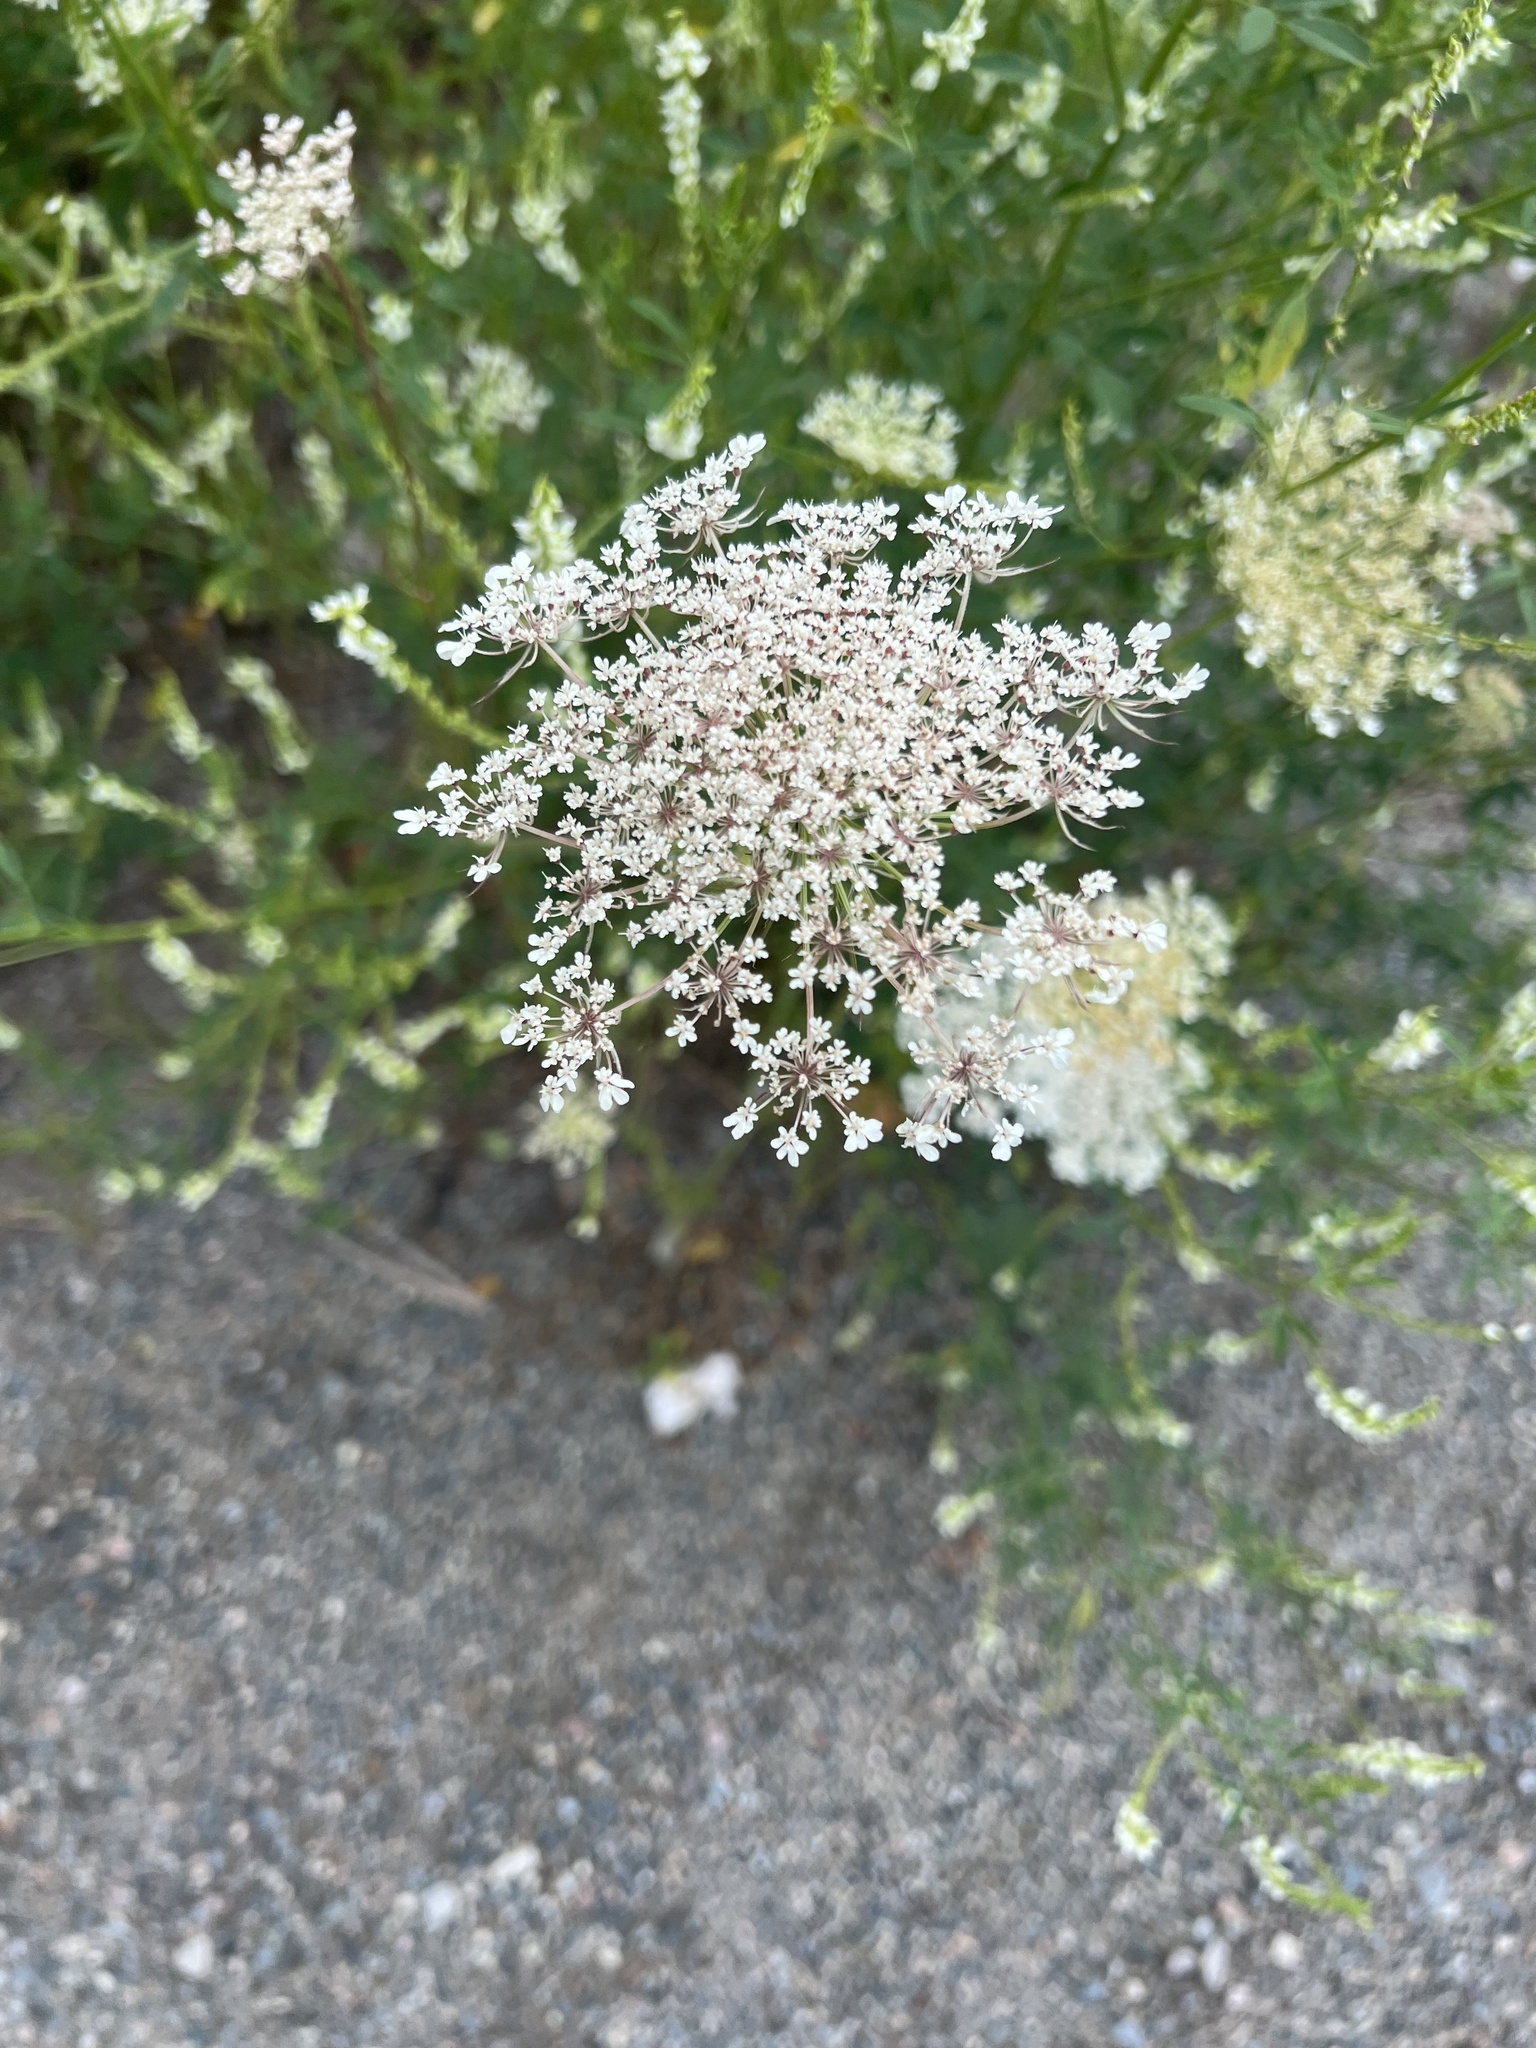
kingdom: Plantae
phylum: Tracheophyta
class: Magnoliopsida
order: Apiales
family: Apiaceae
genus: Daucus
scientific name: Daucus carota
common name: Wild carrot
